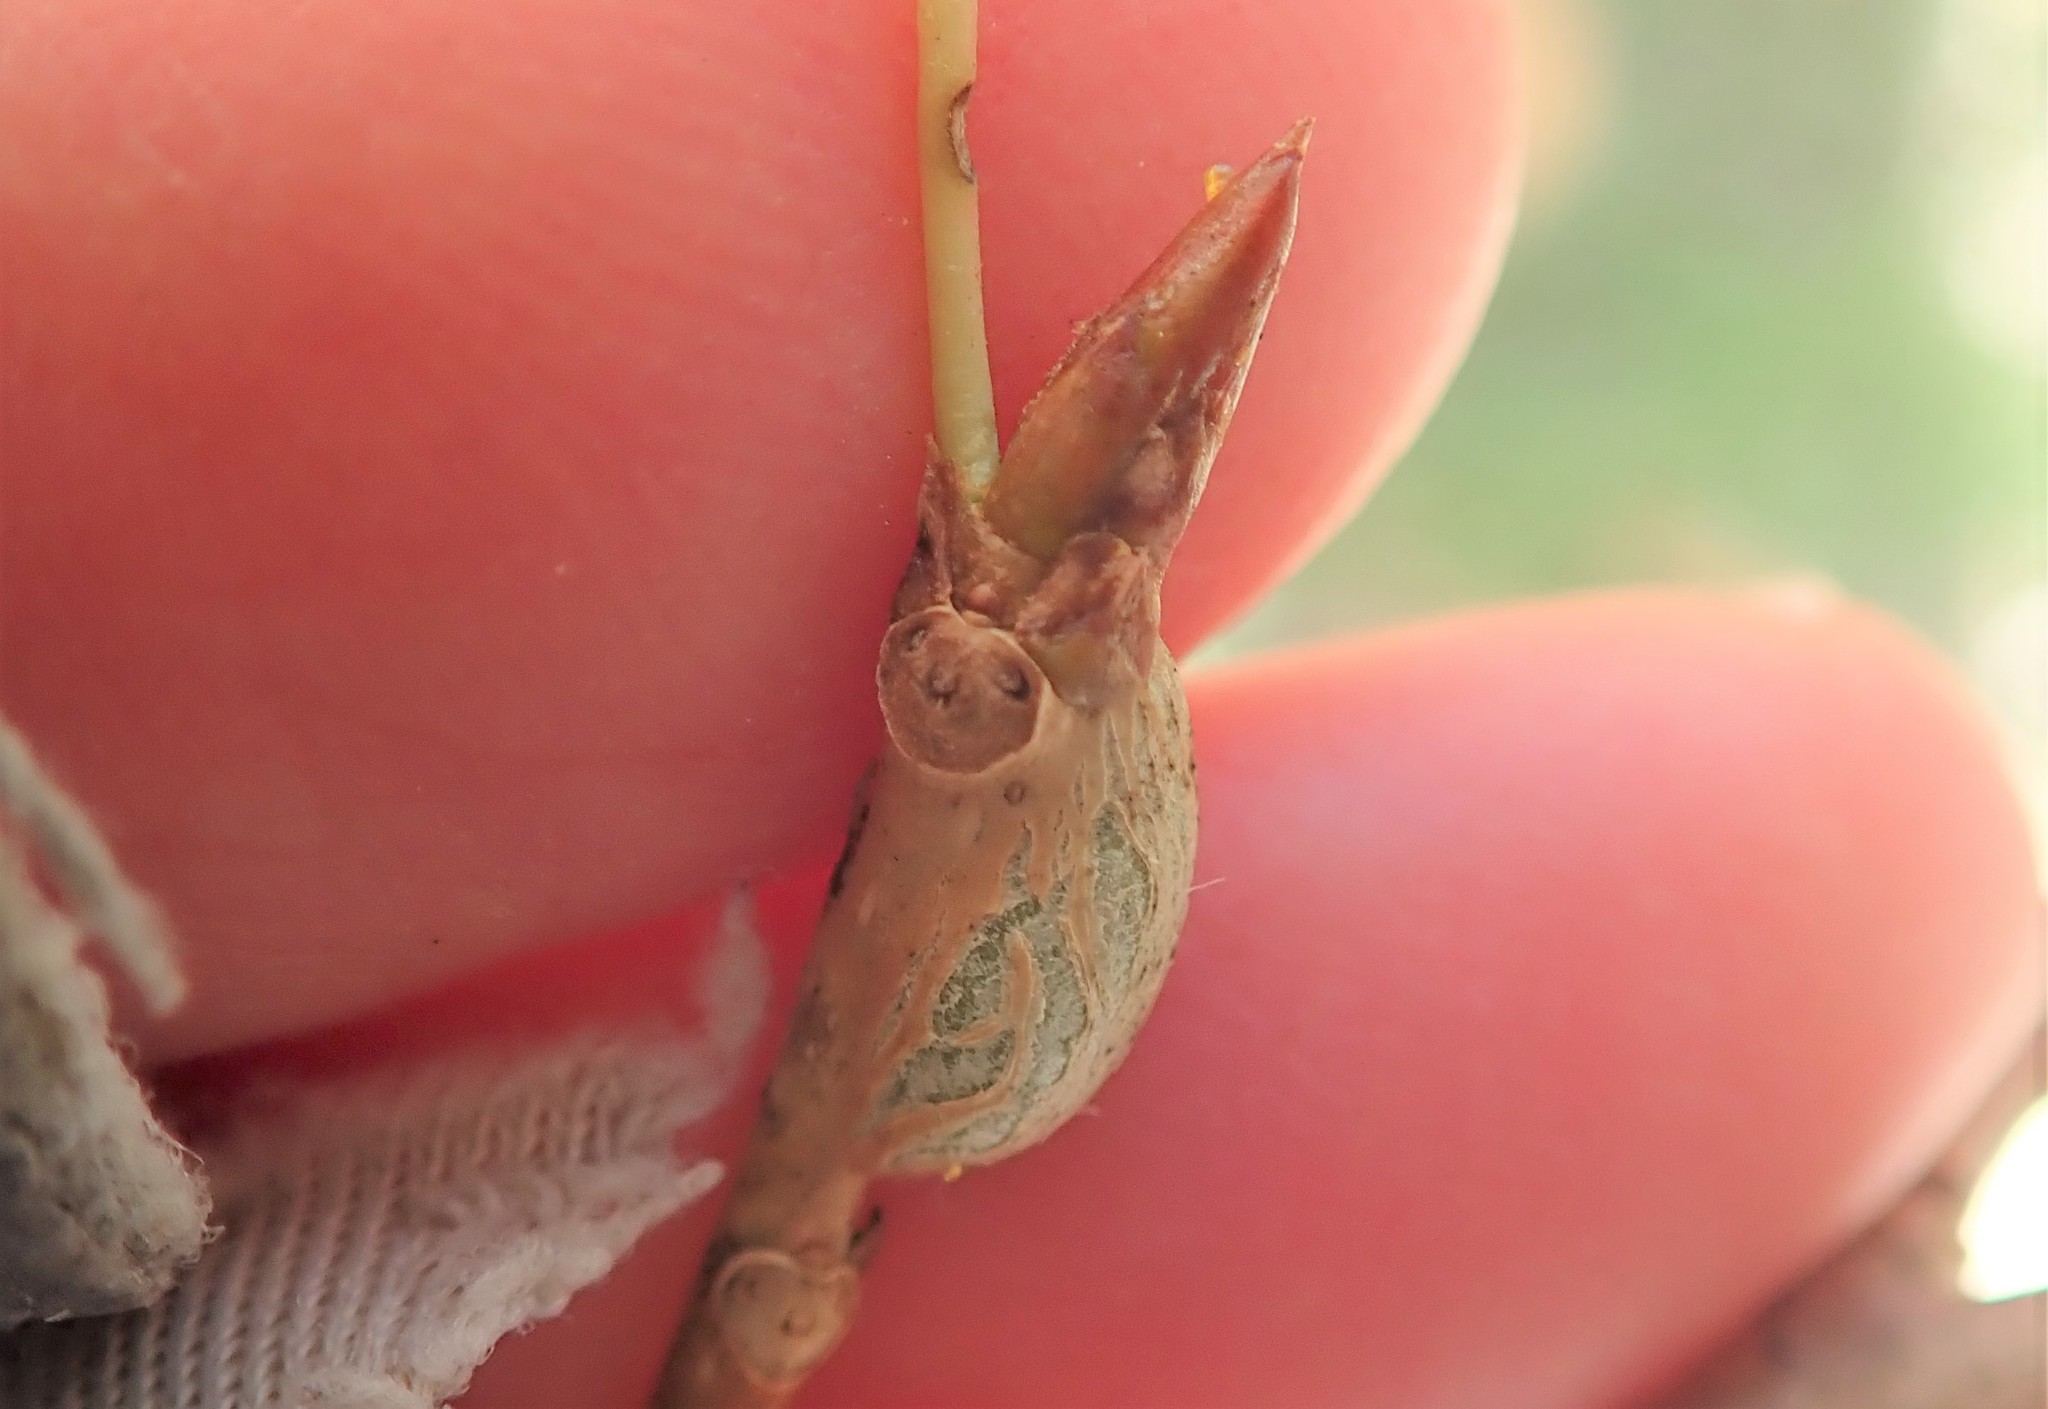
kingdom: Animalia
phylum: Arthropoda
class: Insecta
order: Diptera
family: Agromyzidae
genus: Euhexomyza
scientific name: Euhexomyza schineri
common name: Poplar twiggall fly
